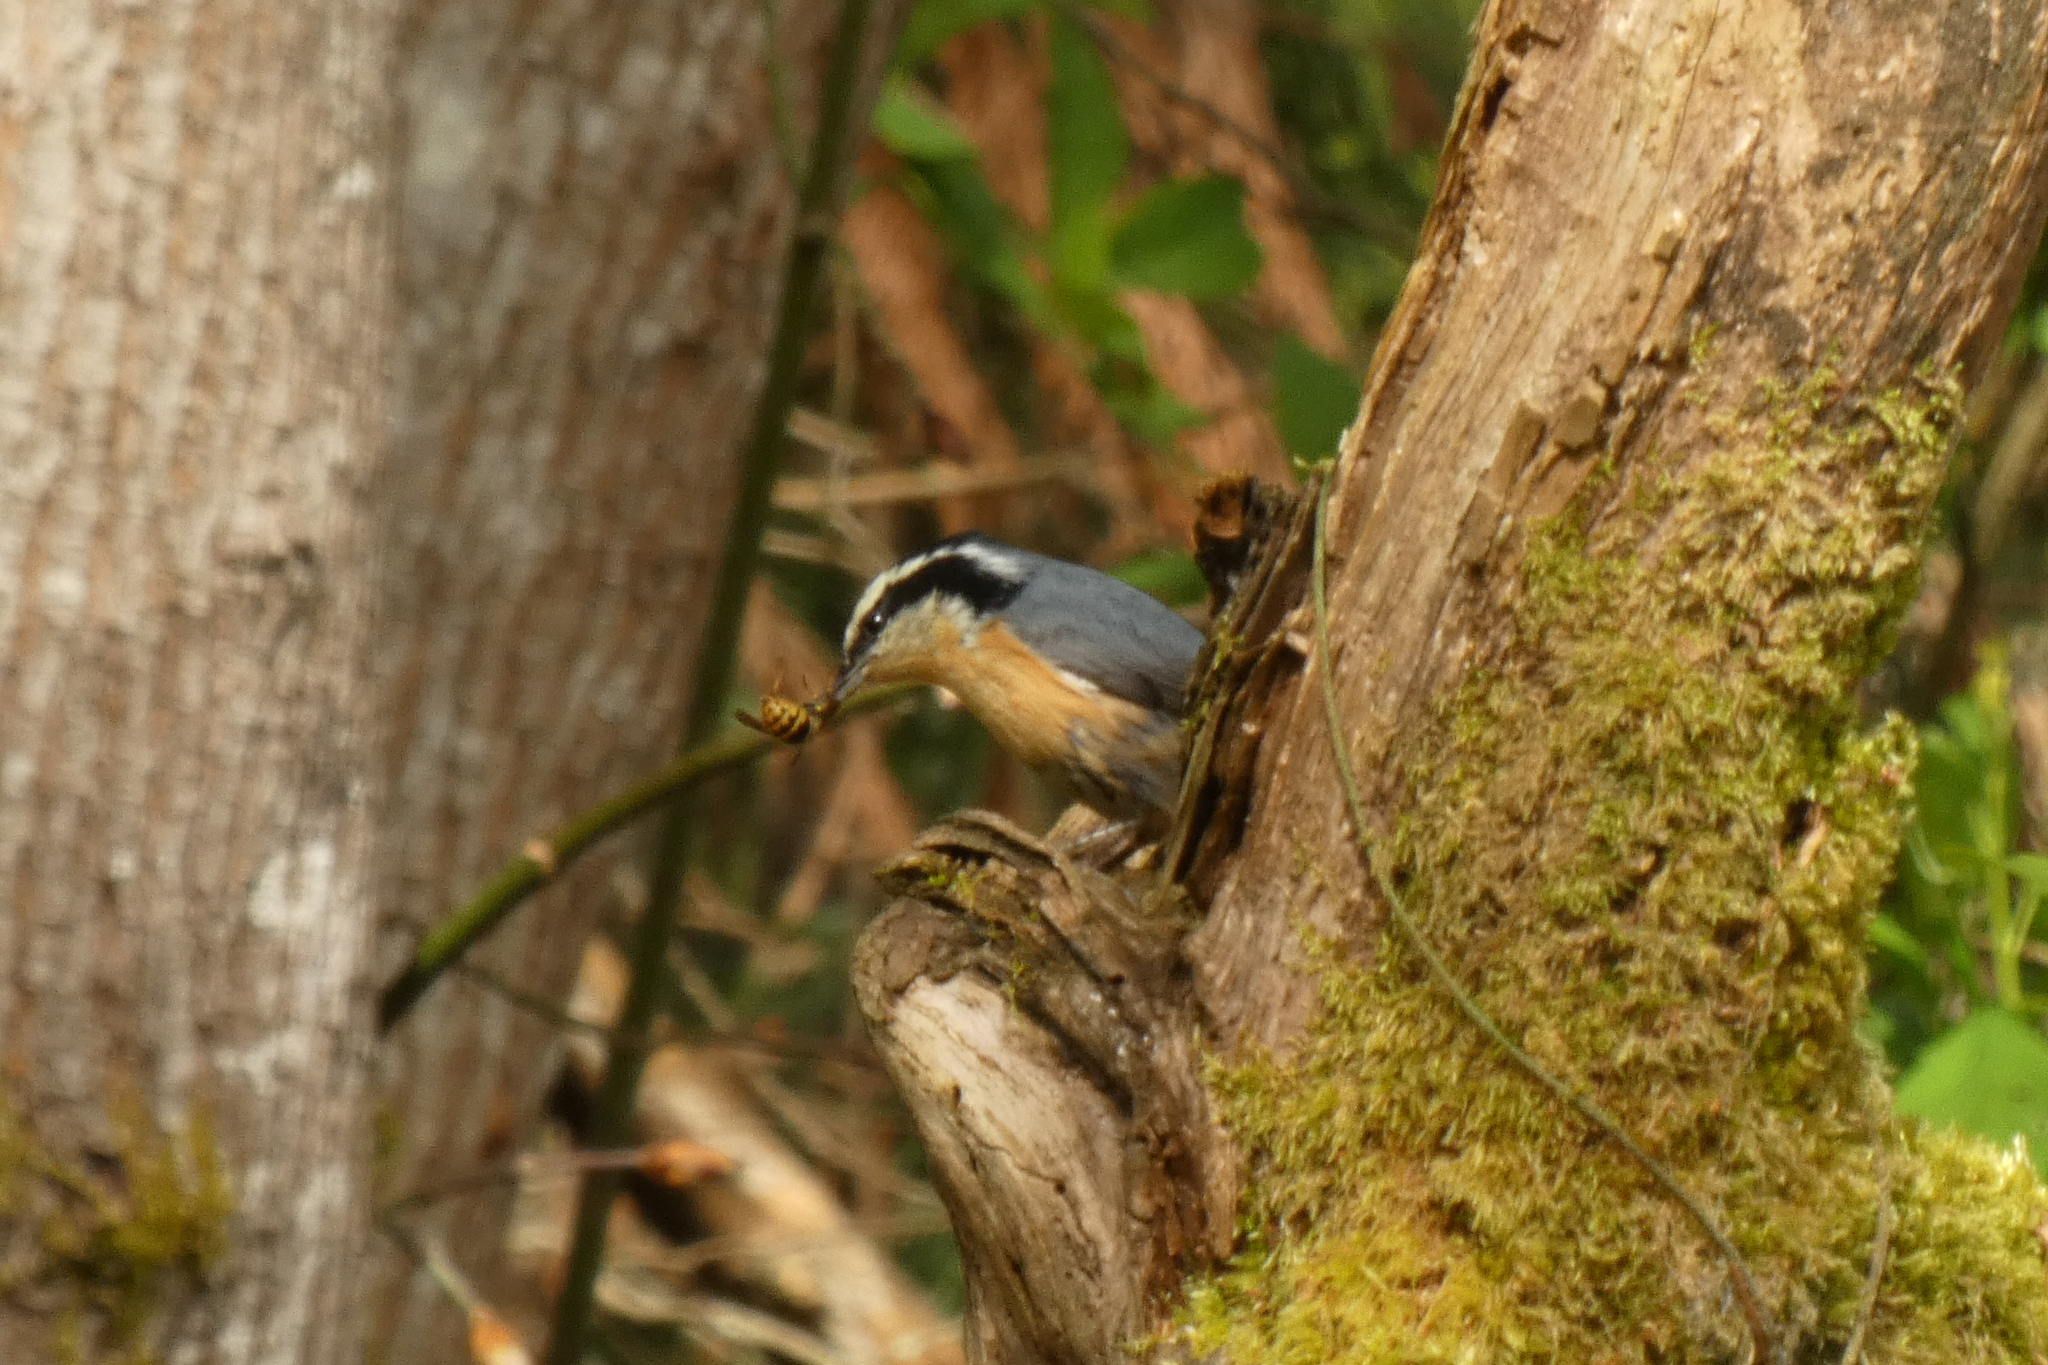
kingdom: Animalia
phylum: Chordata
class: Aves
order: Passeriformes
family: Sittidae
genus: Sitta
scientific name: Sitta canadensis
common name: Red-breasted nuthatch
